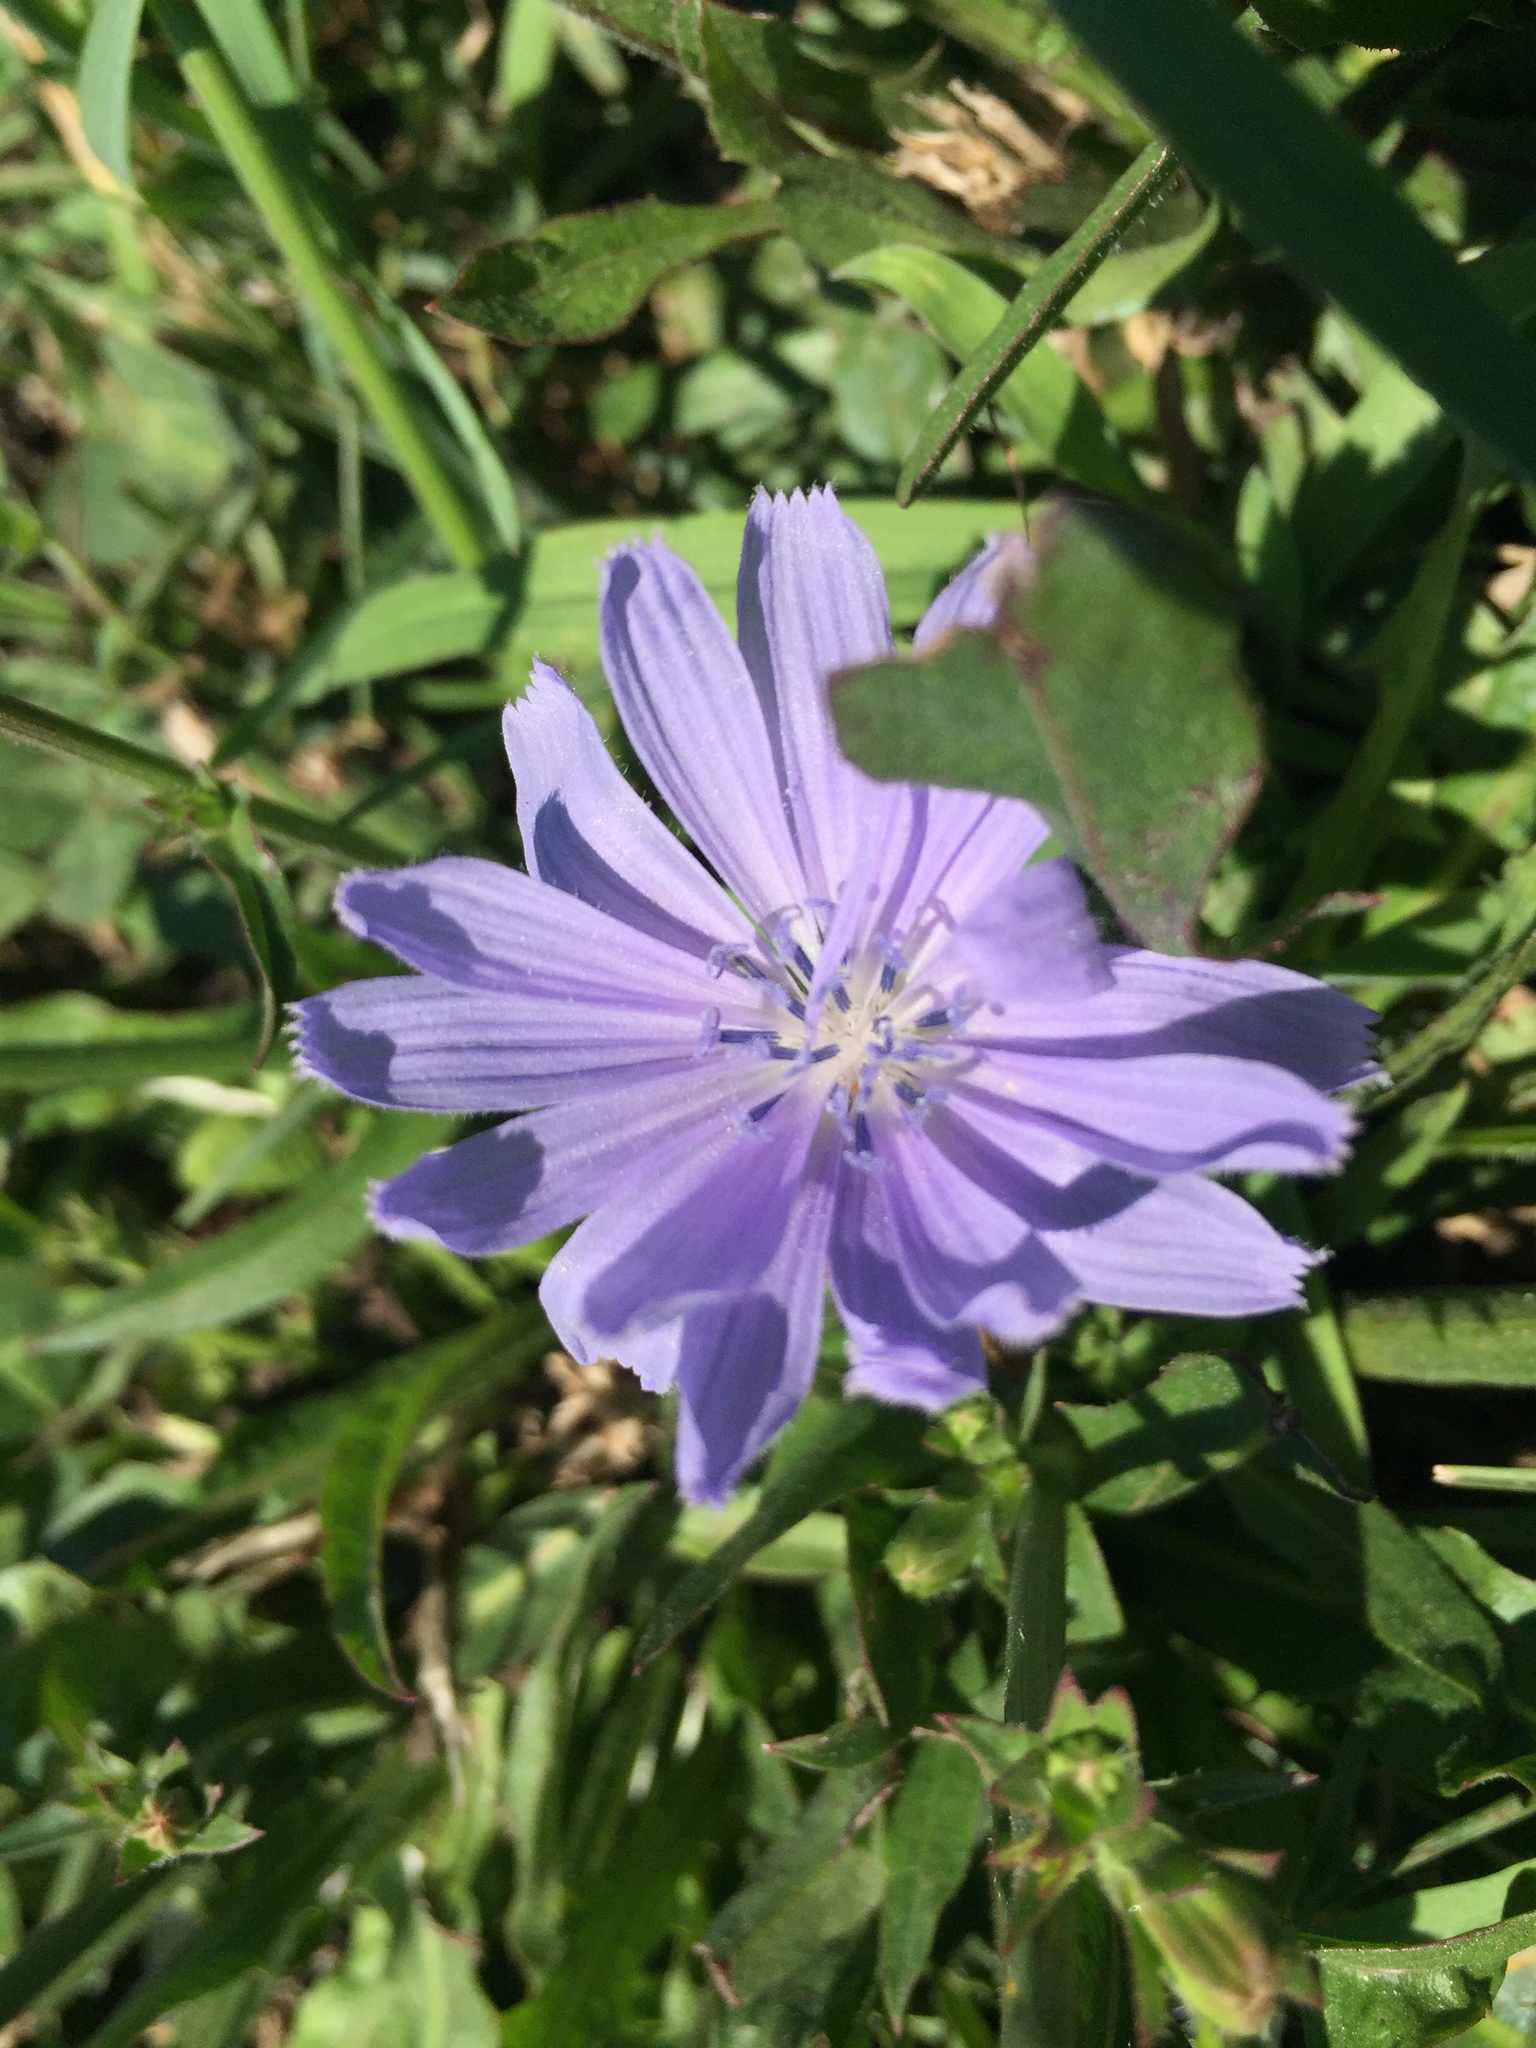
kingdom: Plantae
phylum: Tracheophyta
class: Magnoliopsida
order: Asterales
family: Asteraceae
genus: Cichorium
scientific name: Cichorium intybus
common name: Chicory
